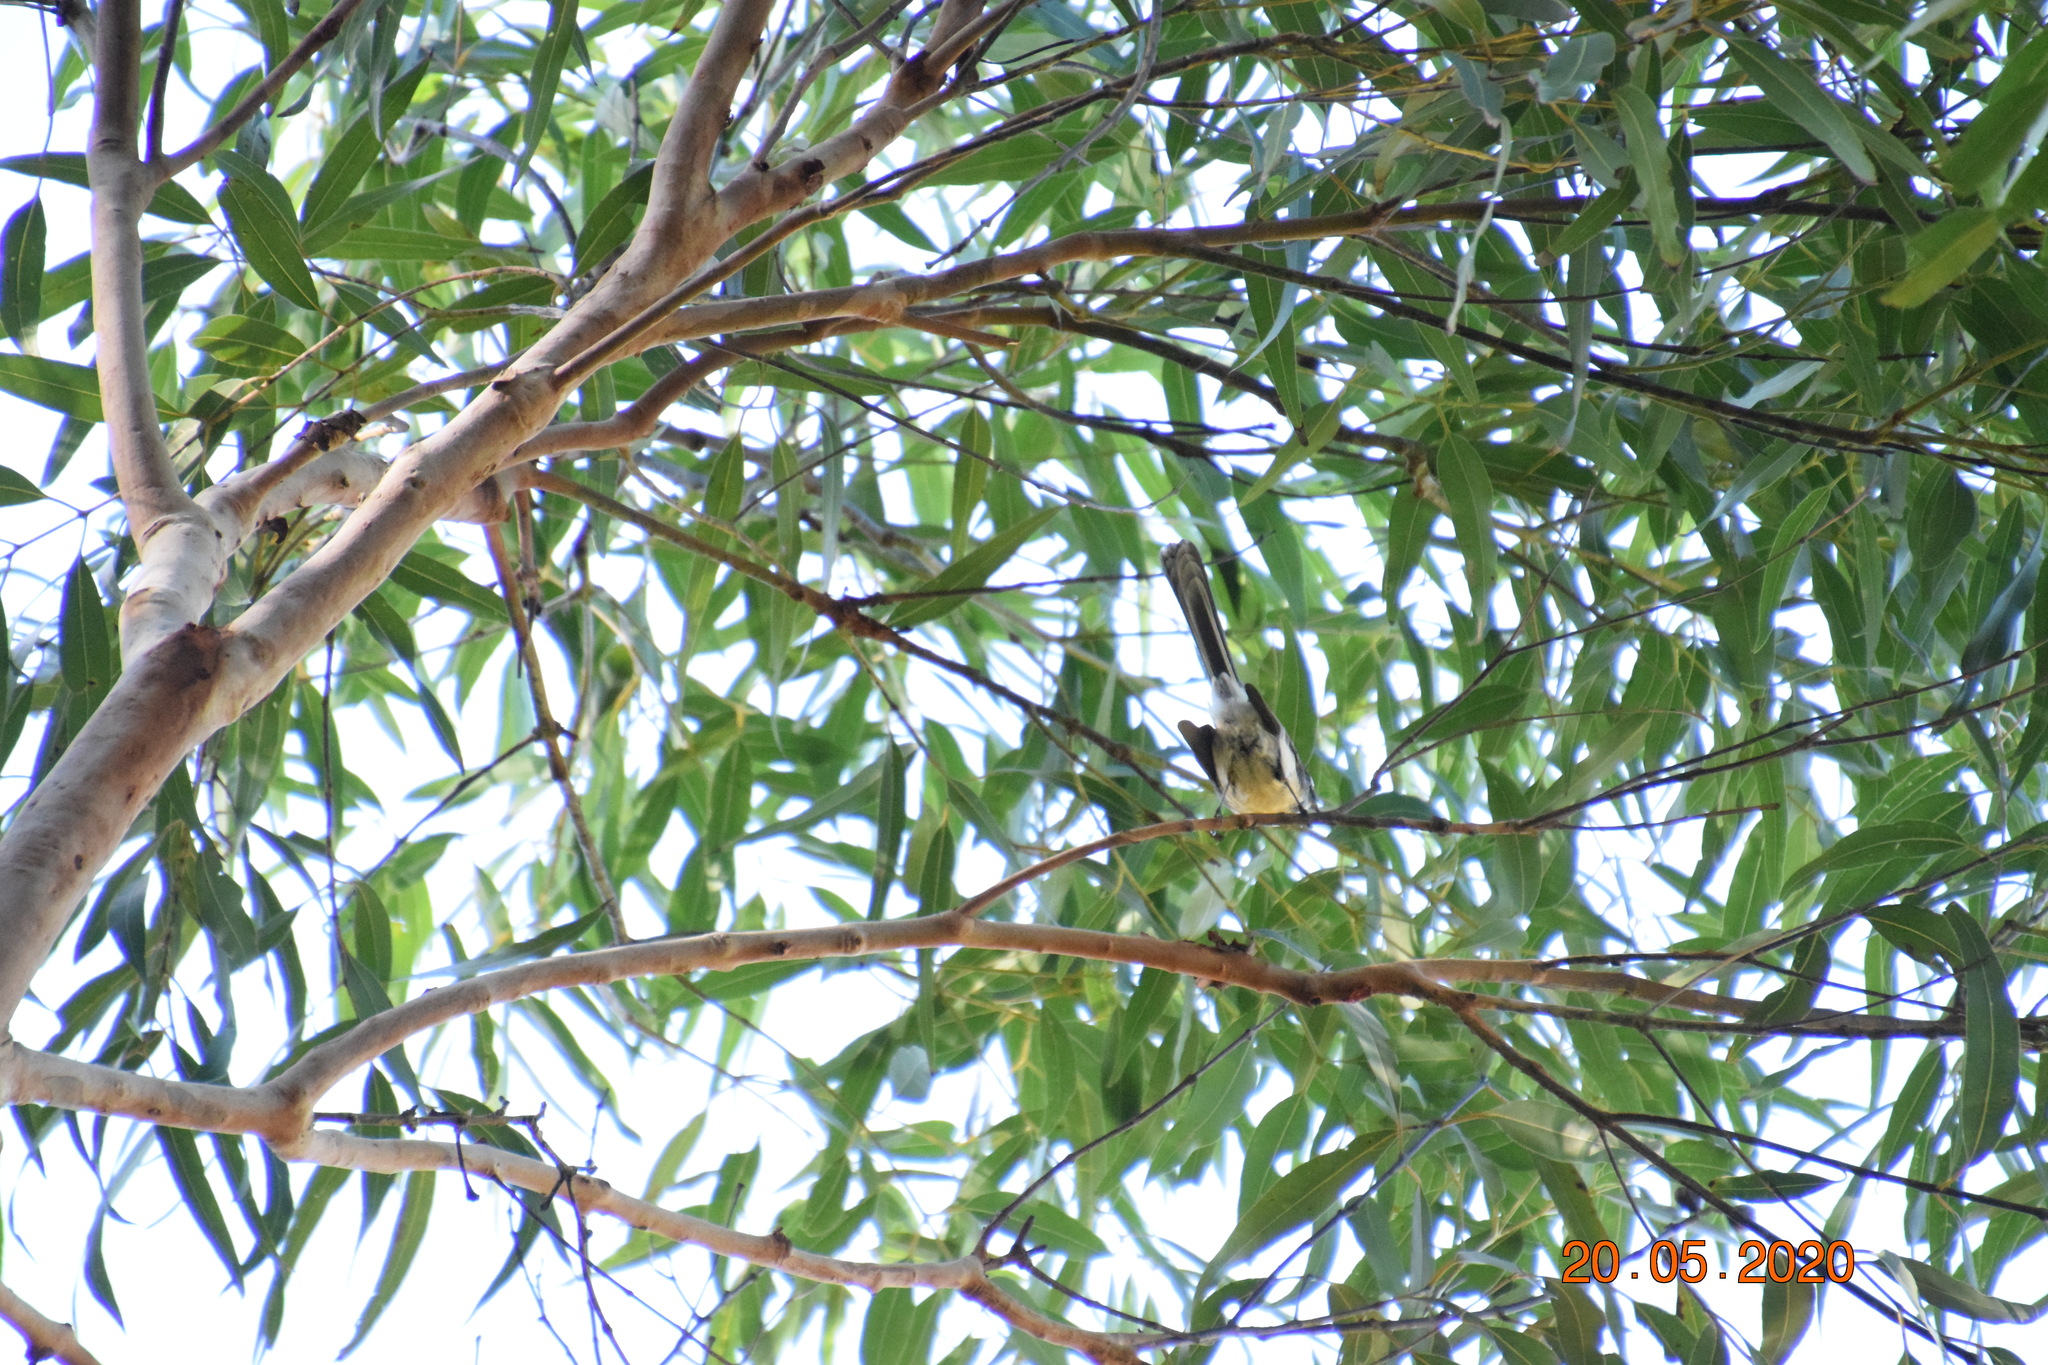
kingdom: Animalia
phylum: Chordata
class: Aves
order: Passeriformes
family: Rhipiduridae
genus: Rhipidura
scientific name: Rhipidura albiscapa
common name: Grey fantail
